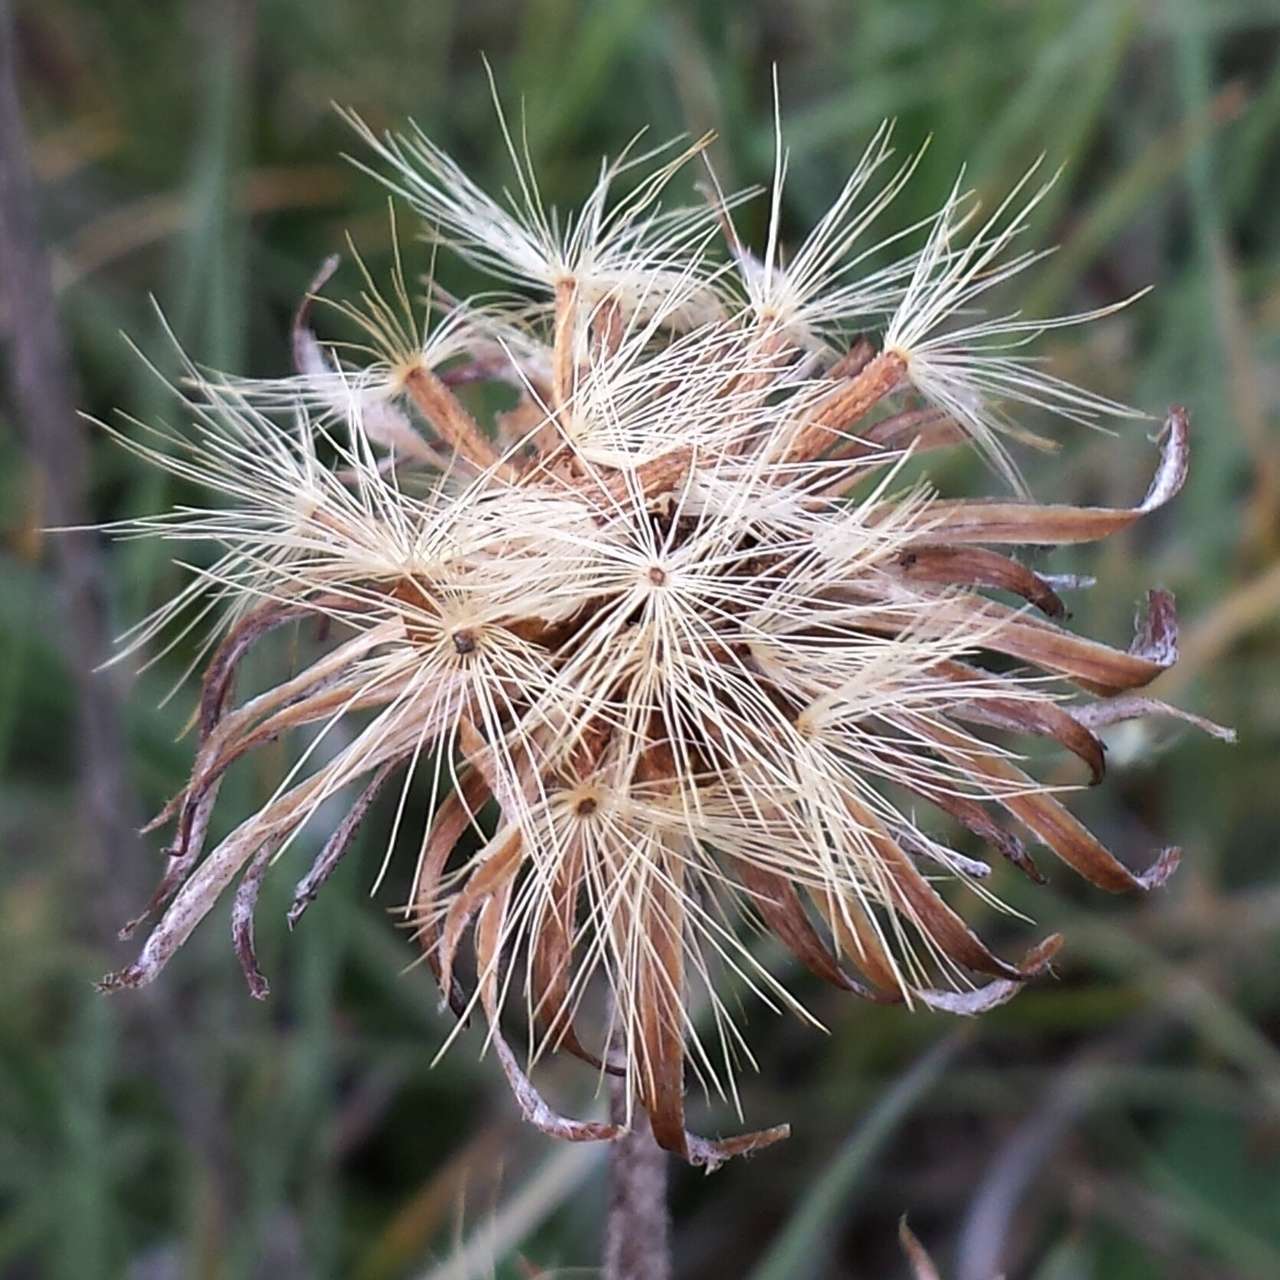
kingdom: Plantae
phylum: Tracheophyta
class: Magnoliopsida
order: Asterales
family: Asteraceae
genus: Celmisia
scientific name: Celmisia costiniana
